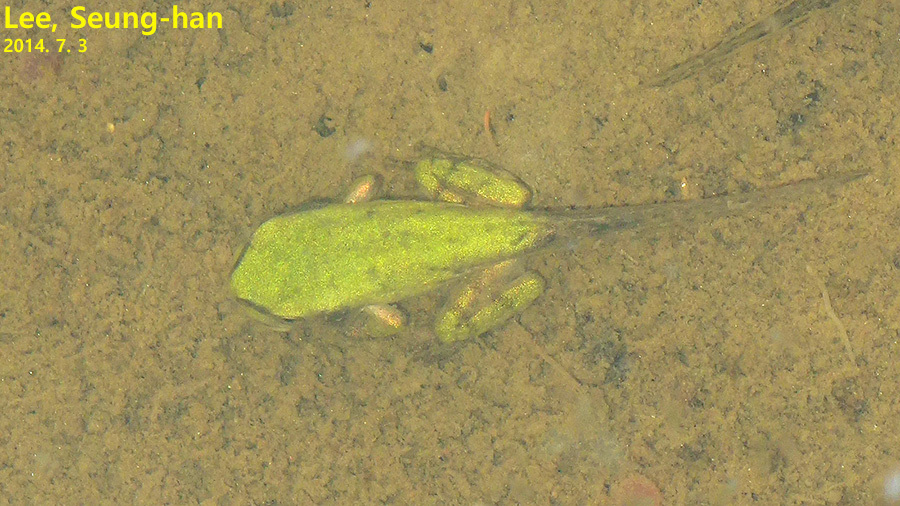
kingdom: Animalia
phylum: Chordata
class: Amphibia
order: Anura
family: Hylidae
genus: Hyla
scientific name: Hyla
